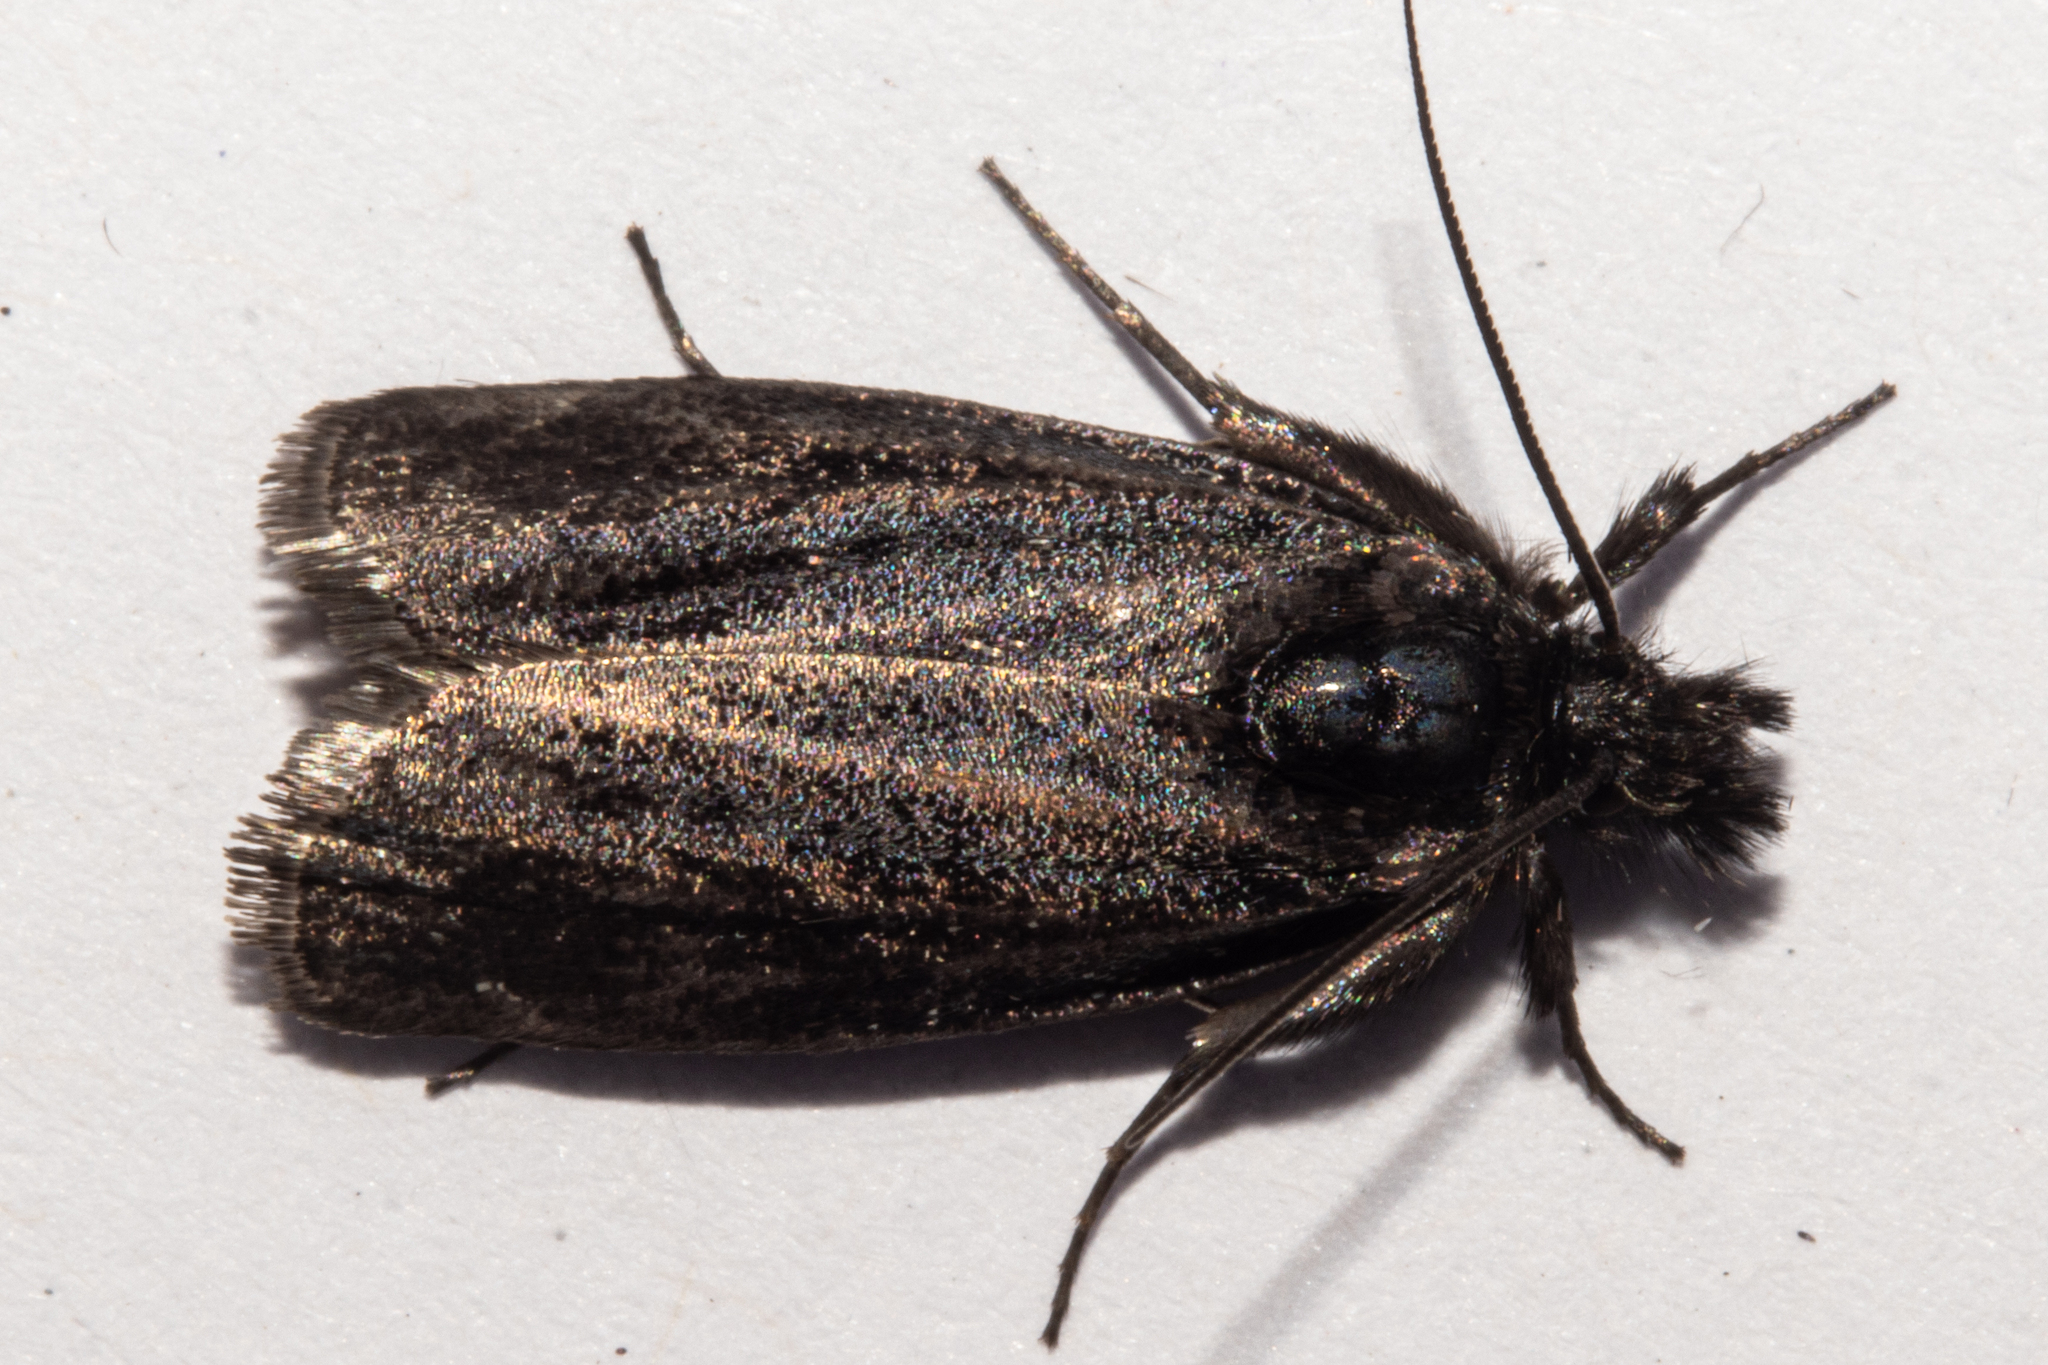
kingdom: Animalia
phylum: Arthropoda
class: Insecta
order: Lepidoptera
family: Crambidae
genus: Orocrambus
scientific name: Orocrambus clarkei
